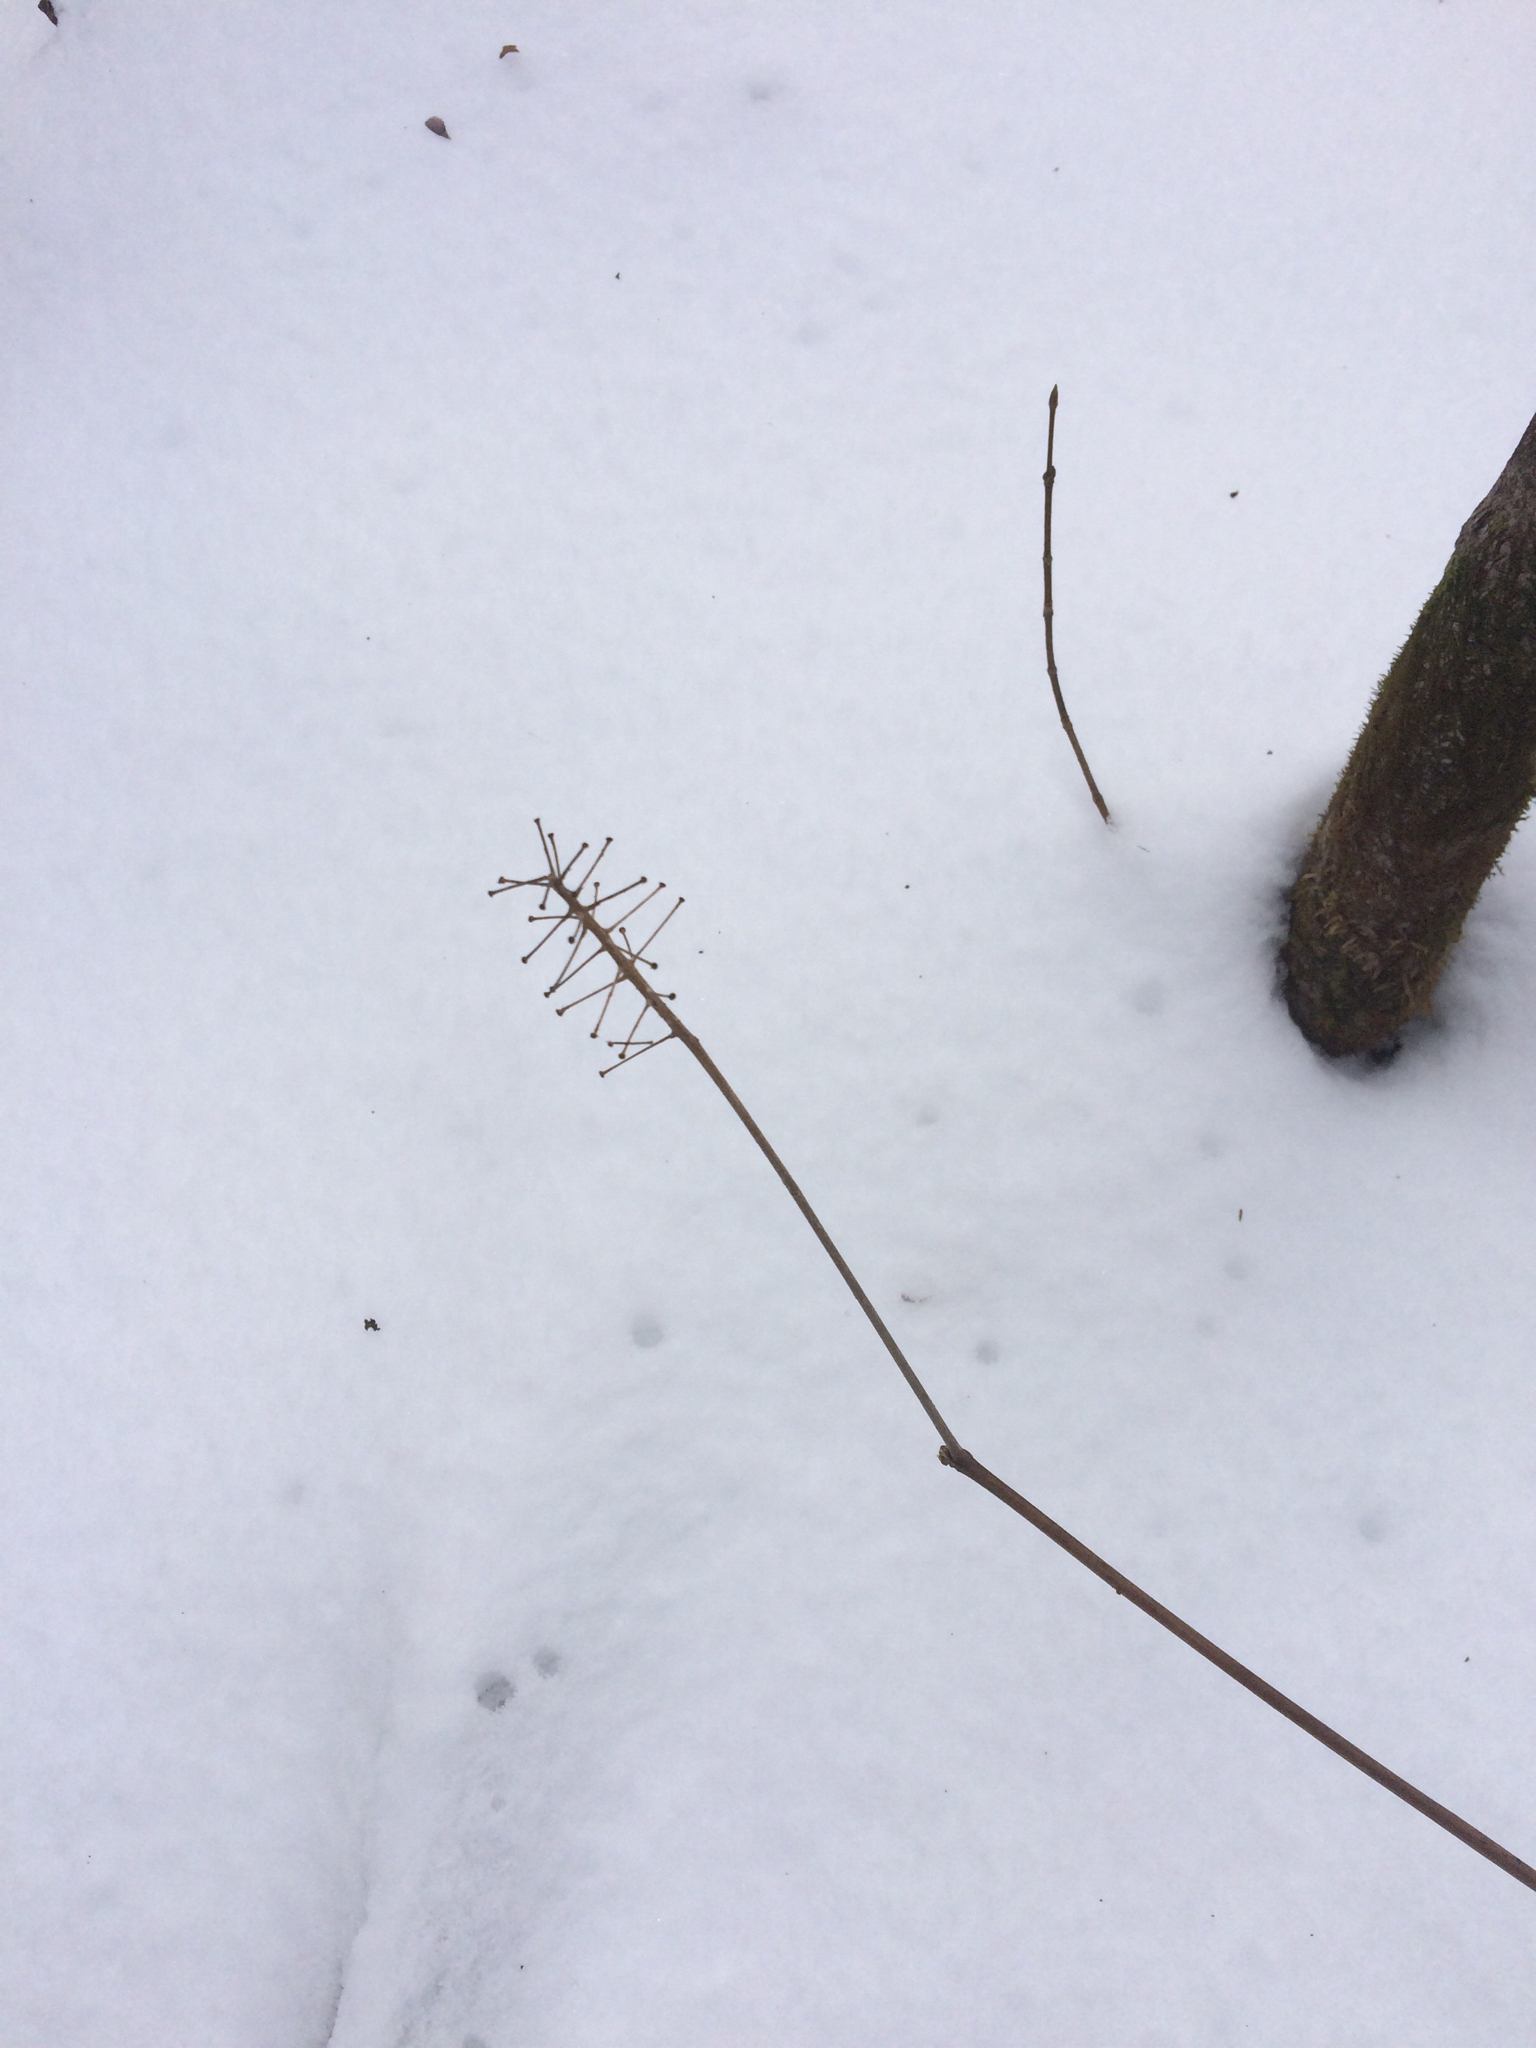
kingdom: Plantae
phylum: Tracheophyta
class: Magnoliopsida
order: Ranunculales
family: Ranunculaceae
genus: Actaea
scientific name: Actaea rubra
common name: Red baneberry
